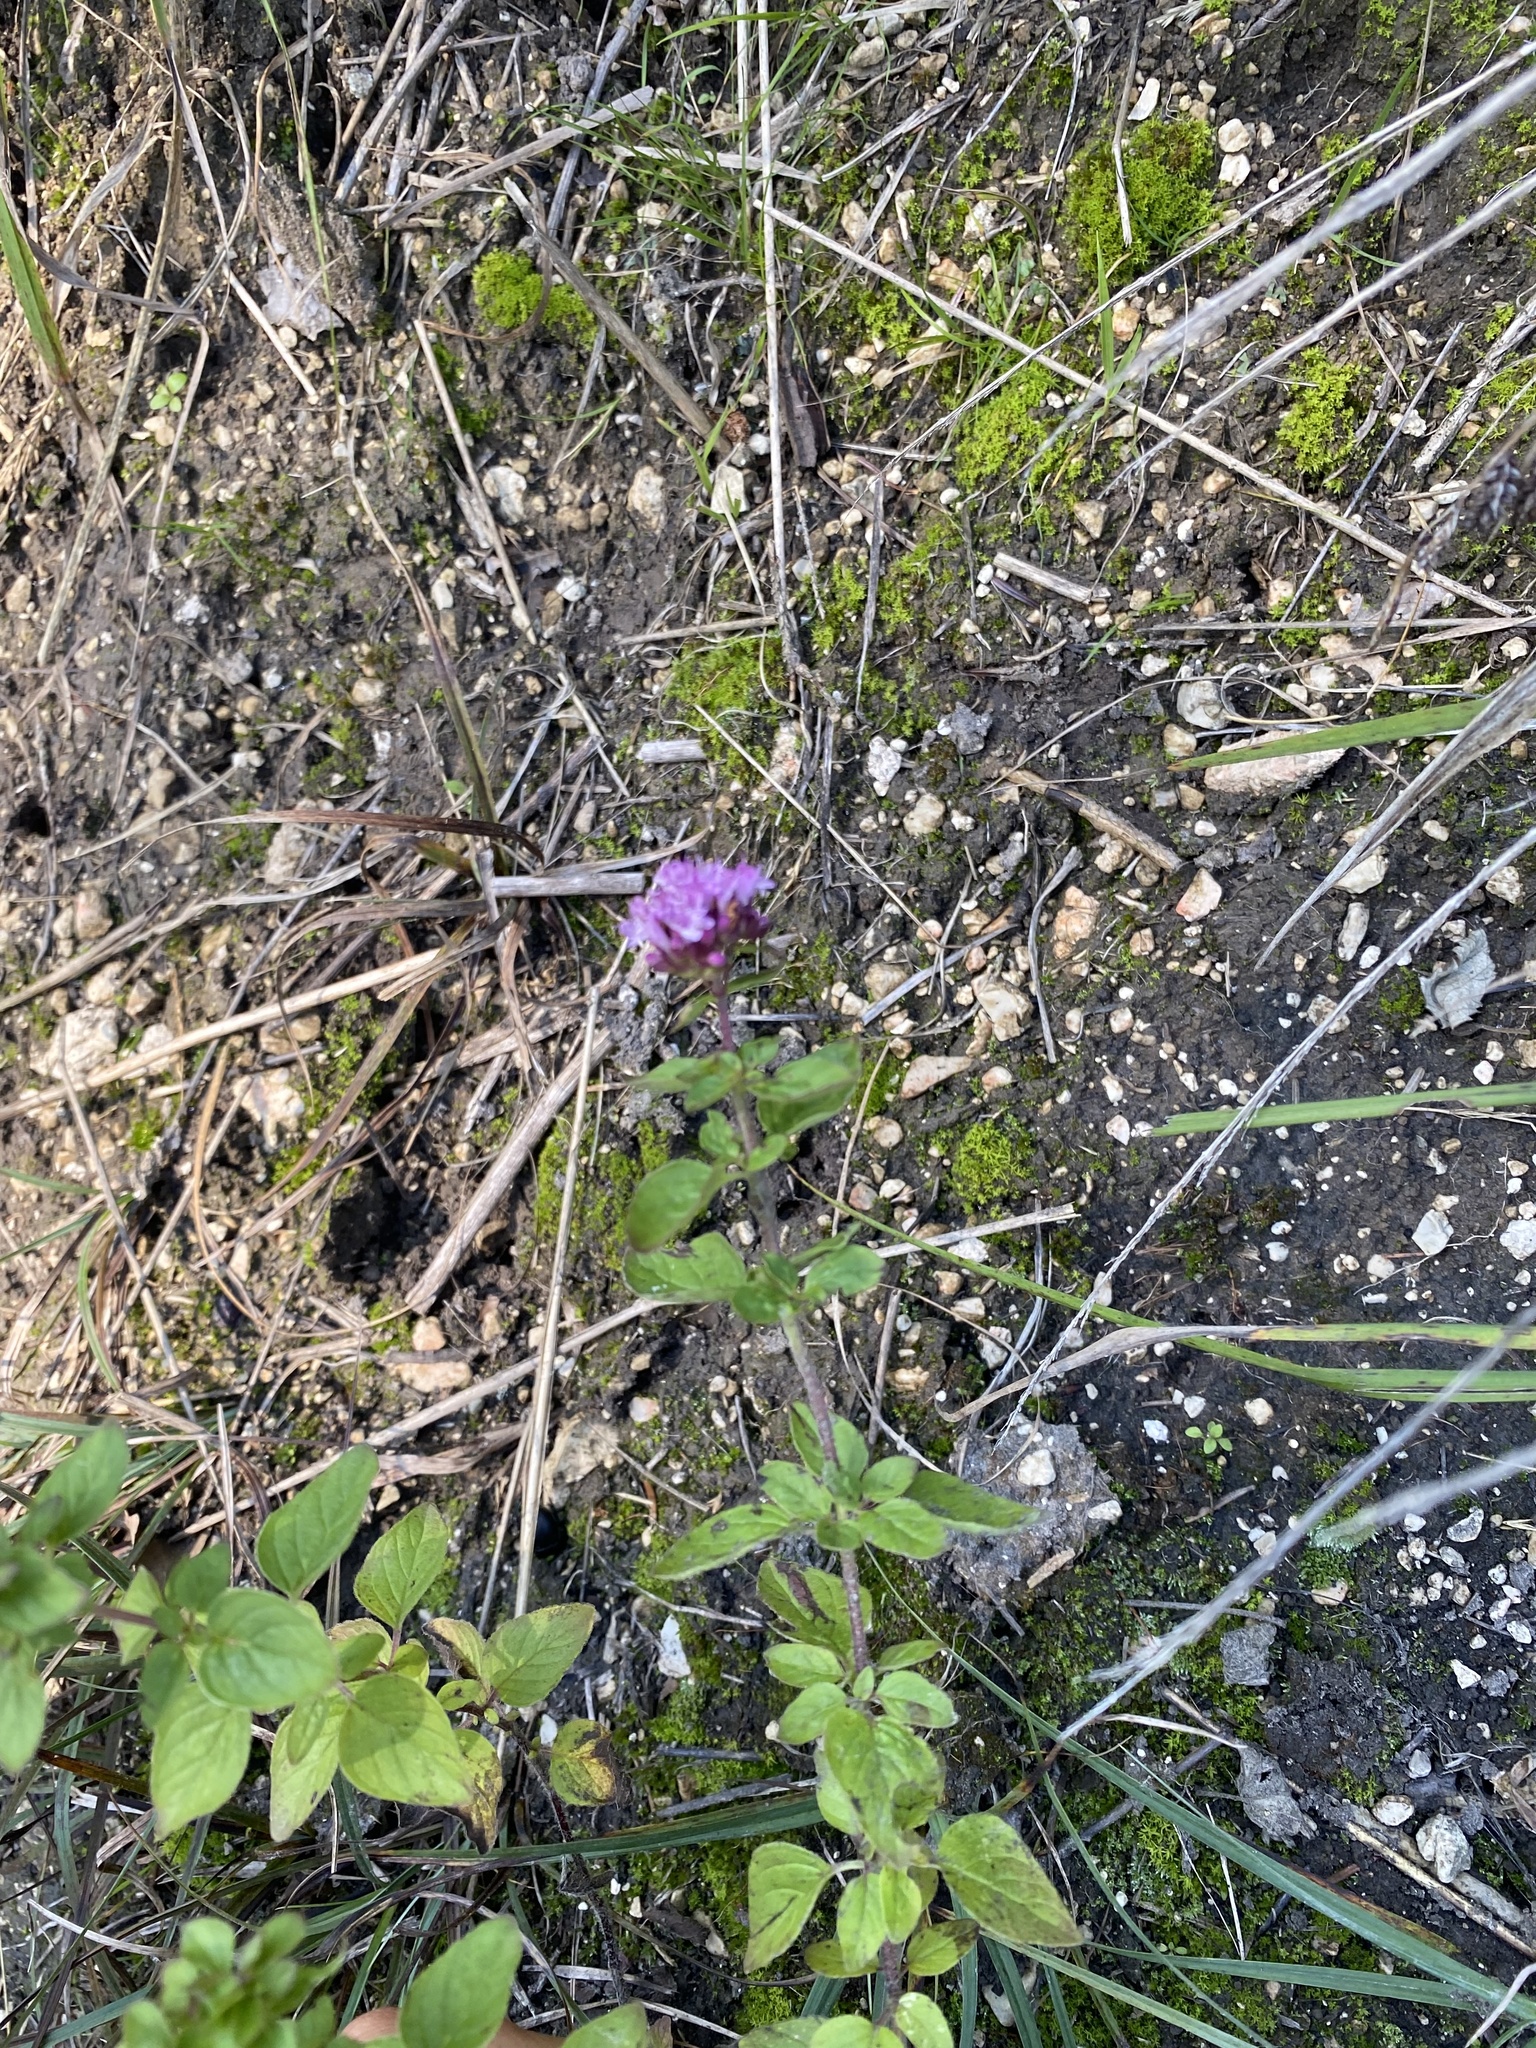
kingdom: Plantae
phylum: Tracheophyta
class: Magnoliopsida
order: Lamiales
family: Lamiaceae
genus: Origanum
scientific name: Origanum vulgare
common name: Wild marjoram
